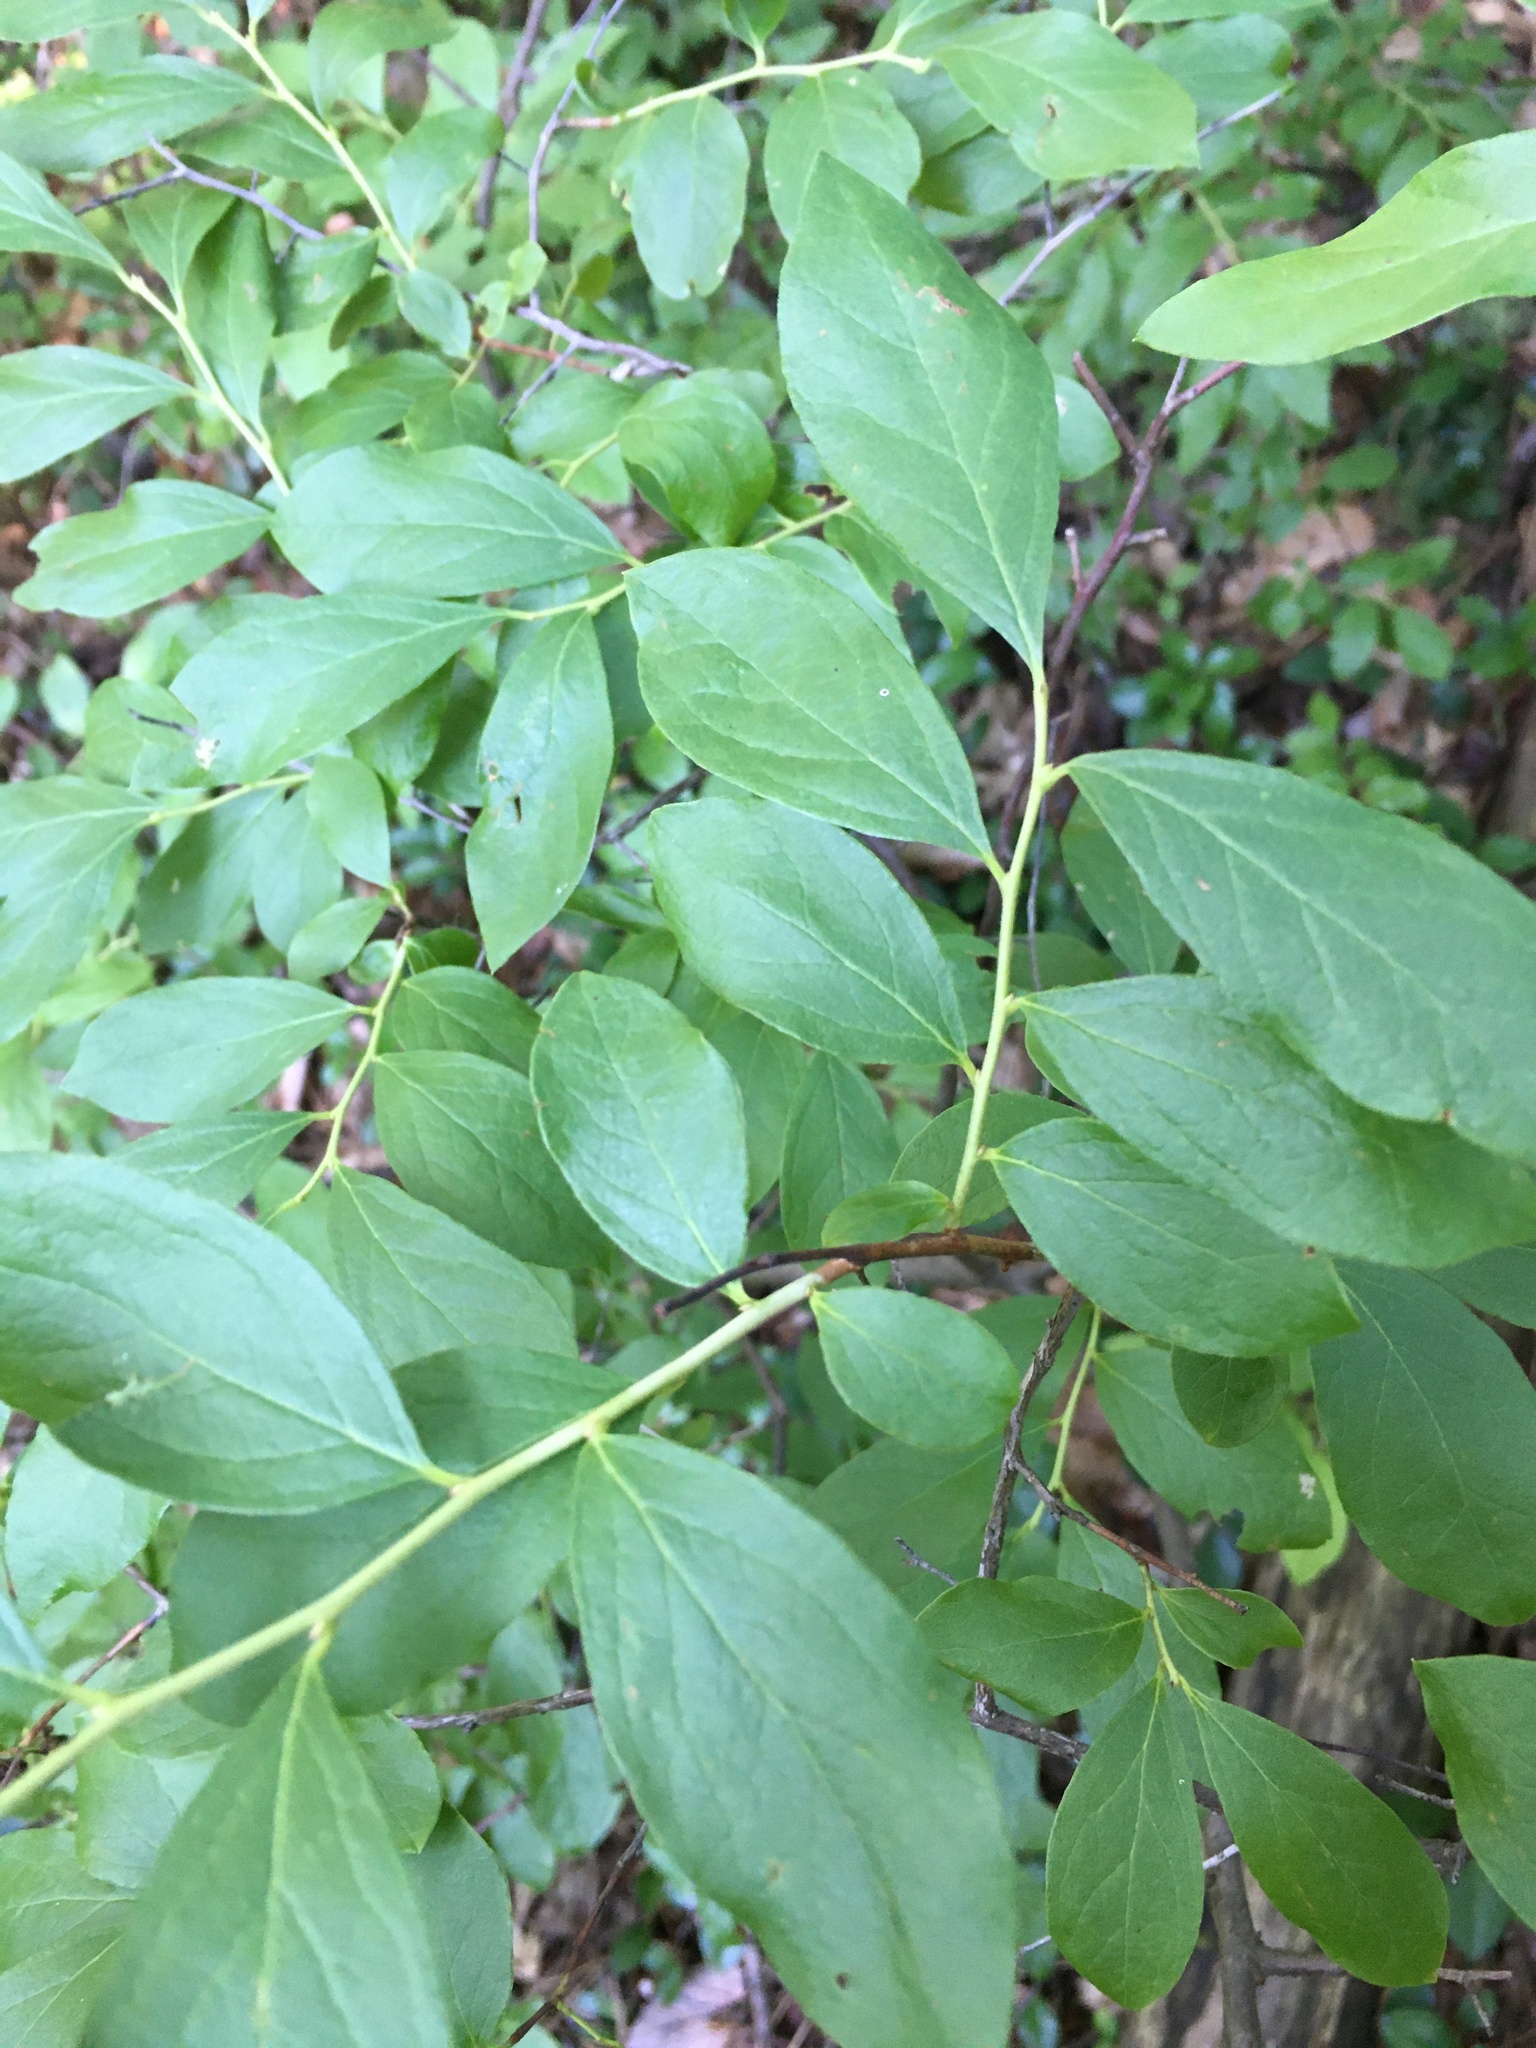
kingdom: Plantae
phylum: Tracheophyta
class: Magnoliopsida
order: Ericales
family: Ericaceae
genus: Gaylussacia
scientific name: Gaylussacia baccata
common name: Black huckleberry
